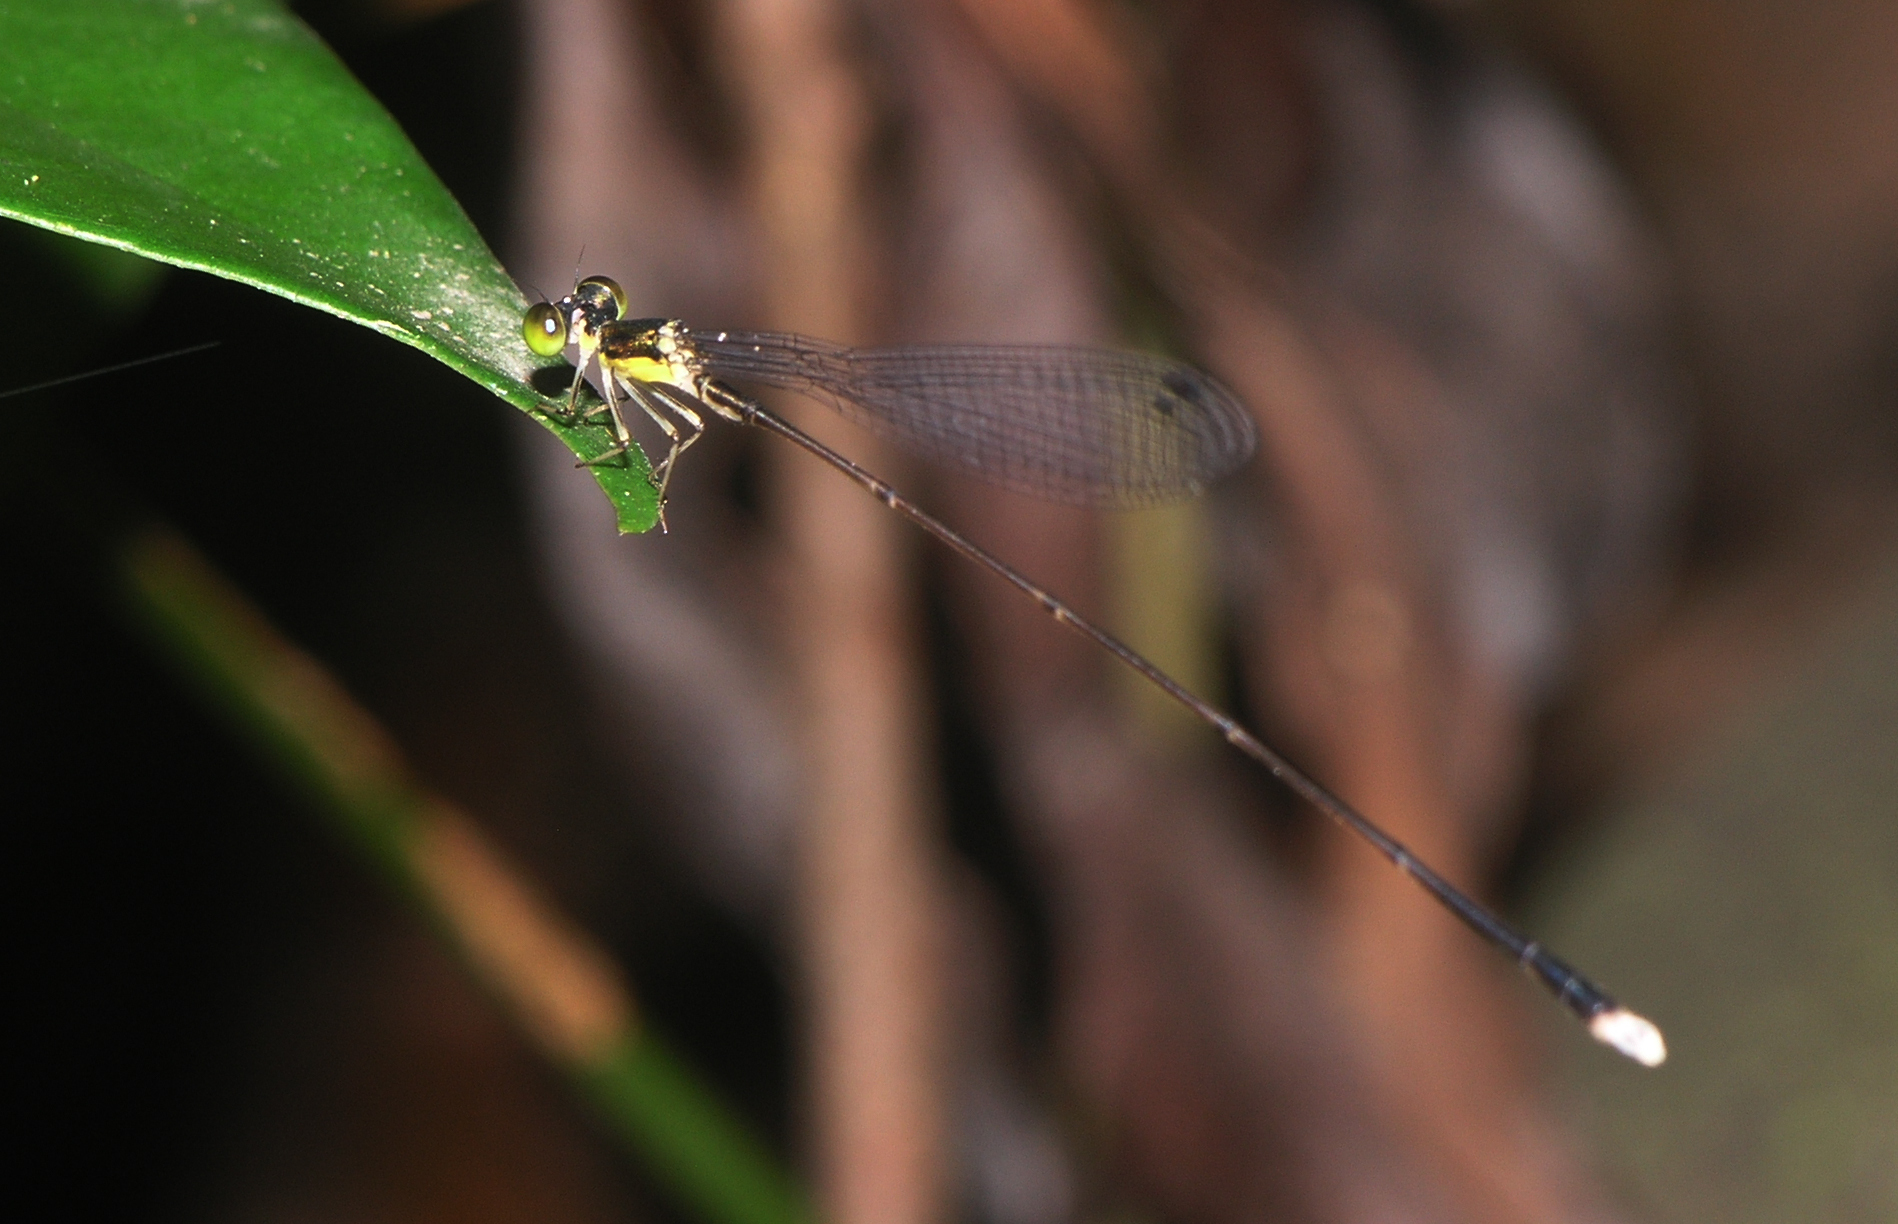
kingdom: Animalia
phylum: Arthropoda
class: Insecta
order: Odonata
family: Coenagrionidae
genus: Amphicnemis
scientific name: Amphicnemis valentini
